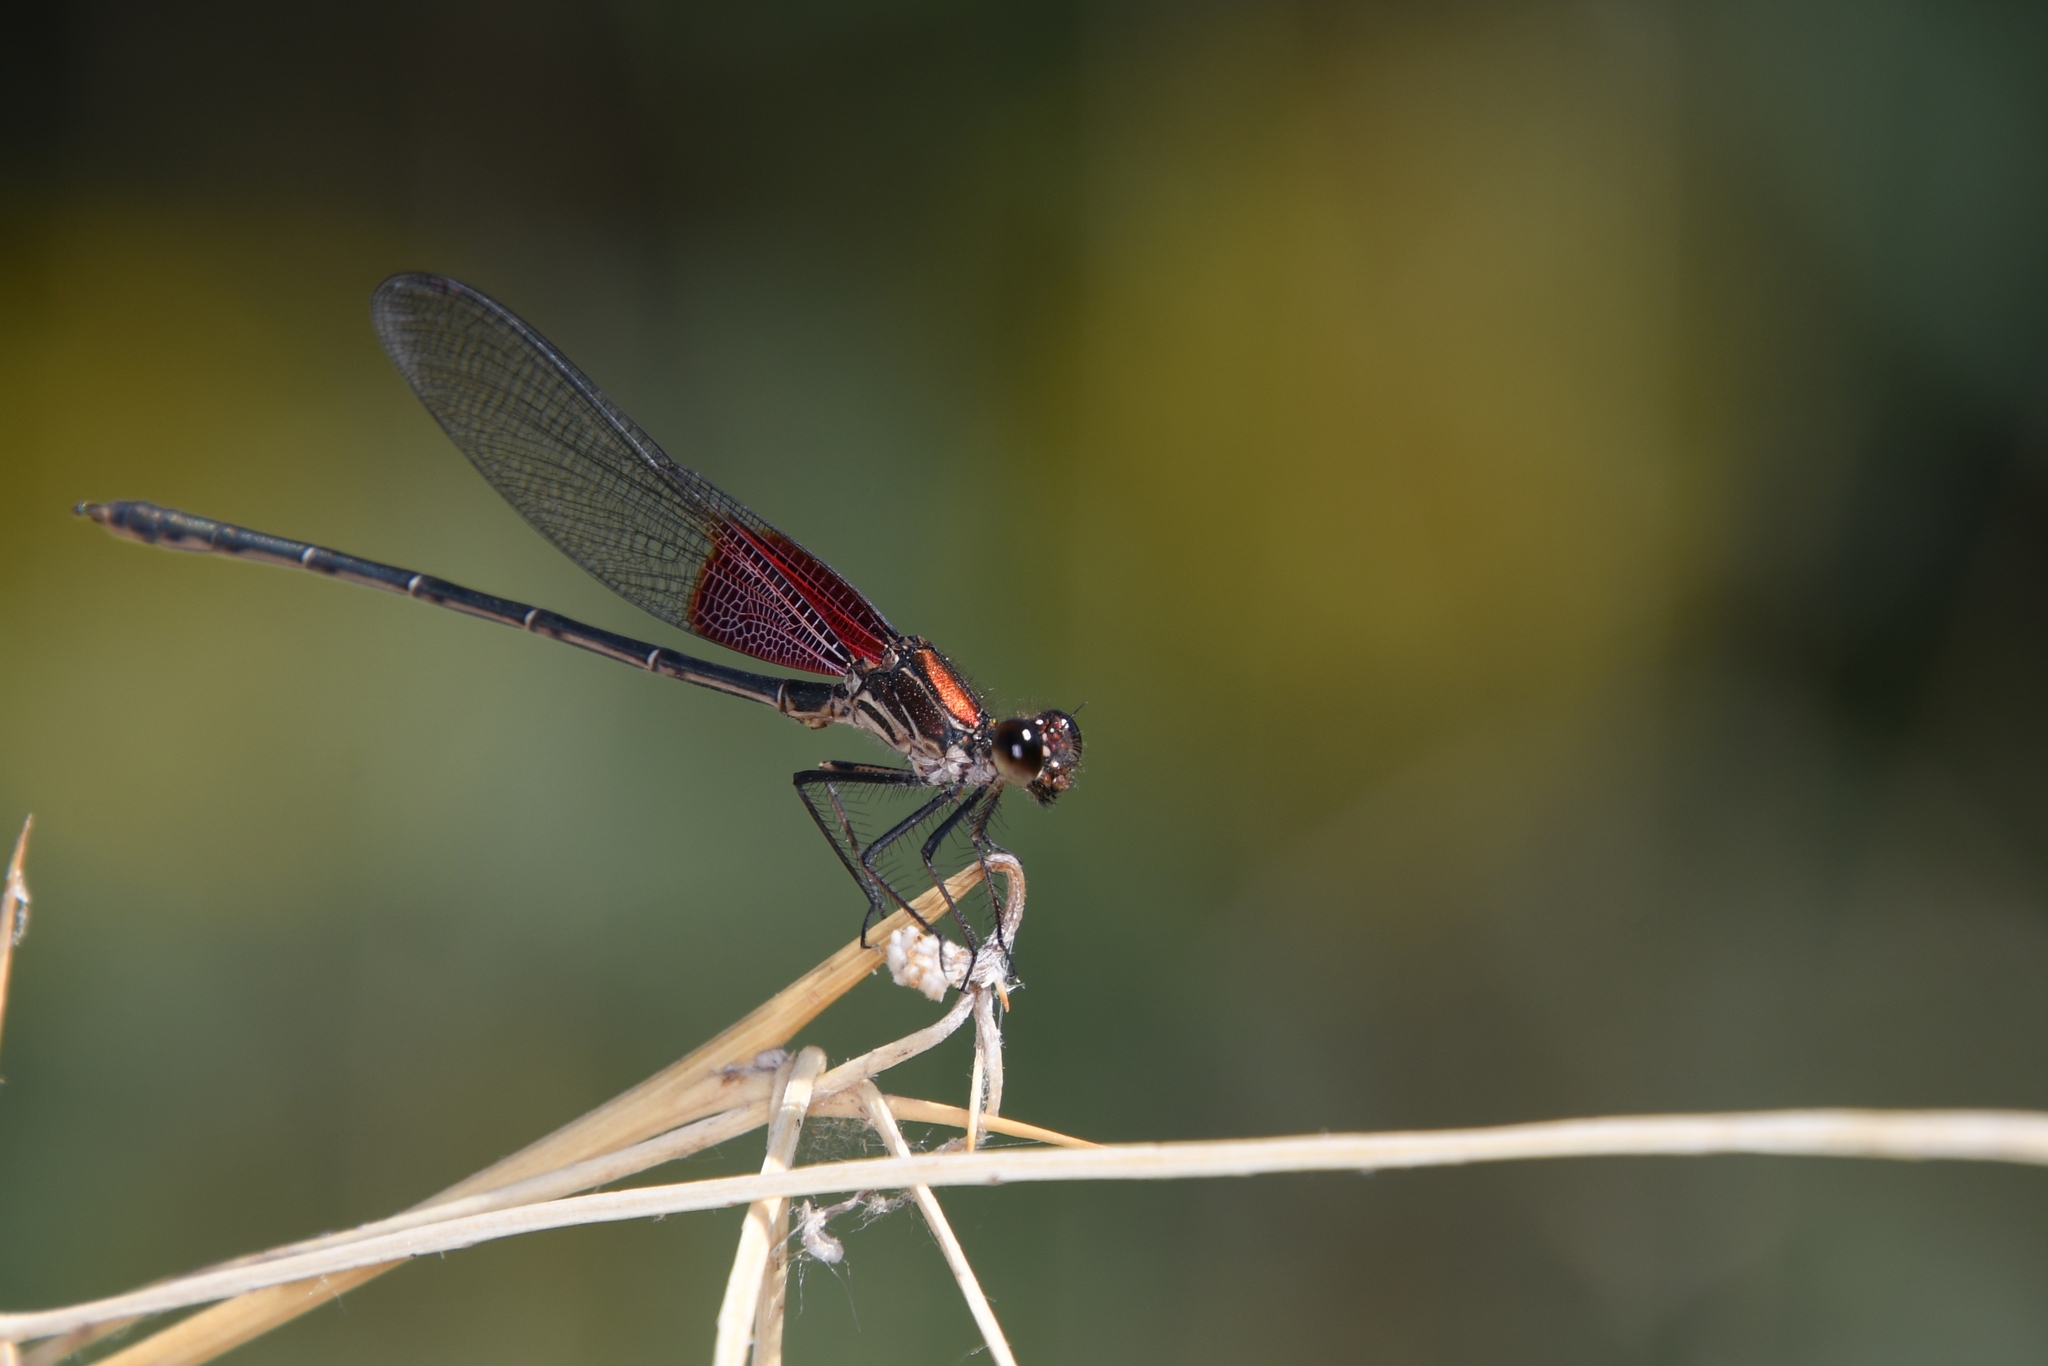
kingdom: Animalia
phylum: Arthropoda
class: Insecta
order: Odonata
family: Calopterygidae
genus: Hetaerina
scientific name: Hetaerina americana
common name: American rubyspot
